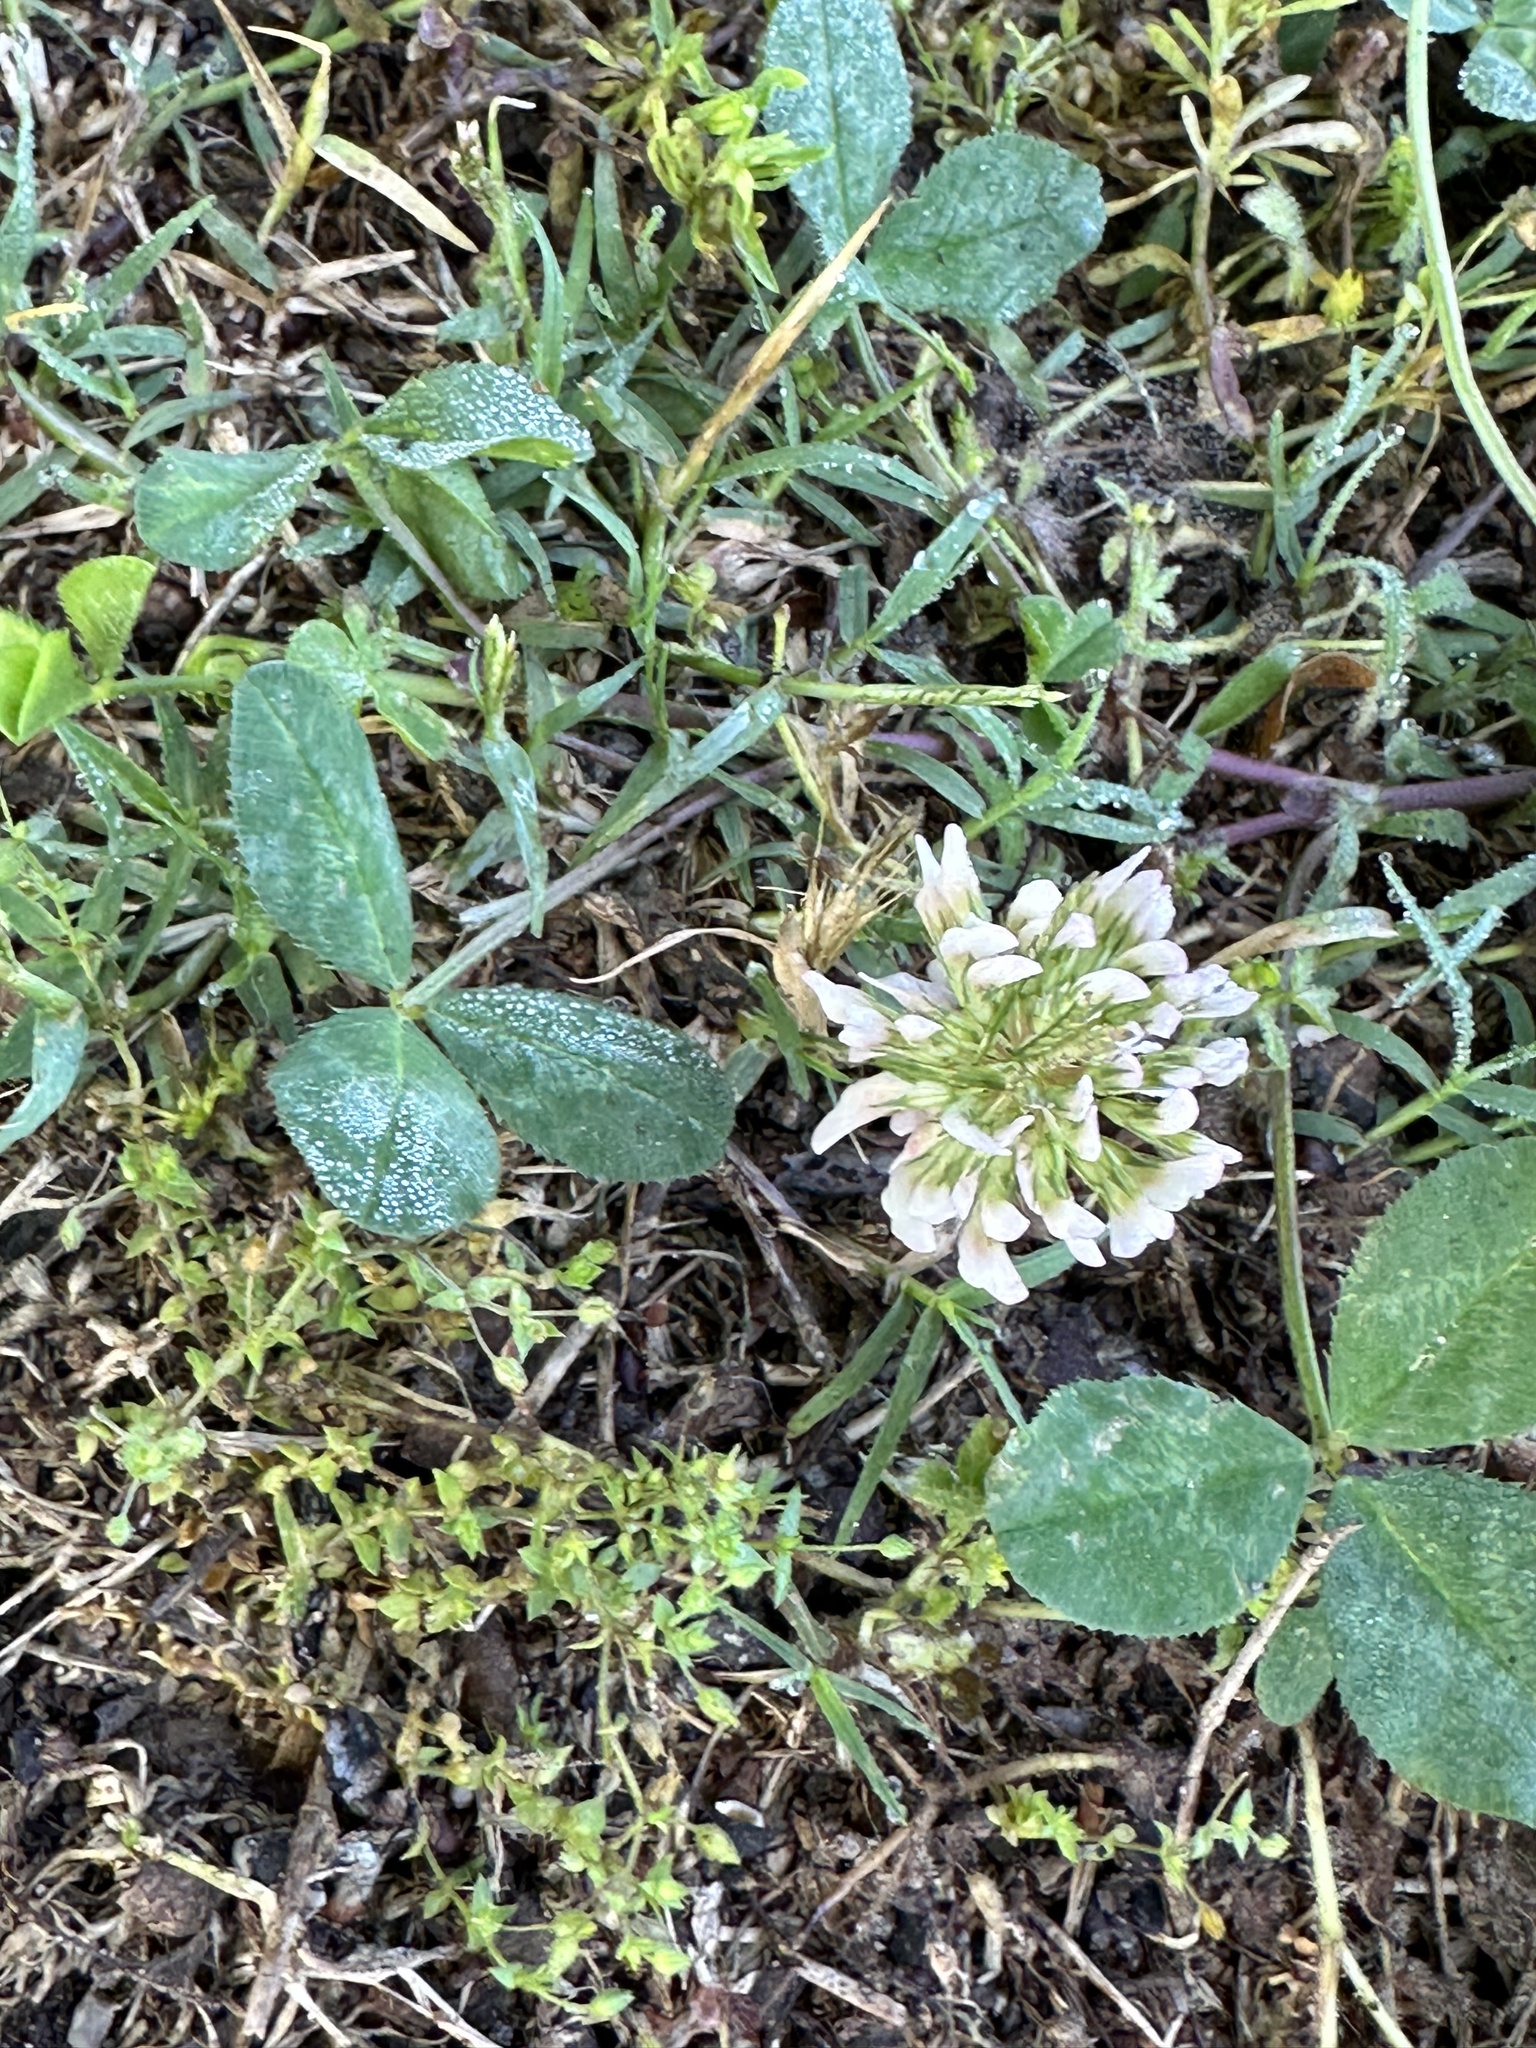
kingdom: Plantae
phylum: Tracheophyta
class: Magnoliopsida
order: Fabales
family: Fabaceae
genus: Trifolium
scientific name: Trifolium repens
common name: White clover
